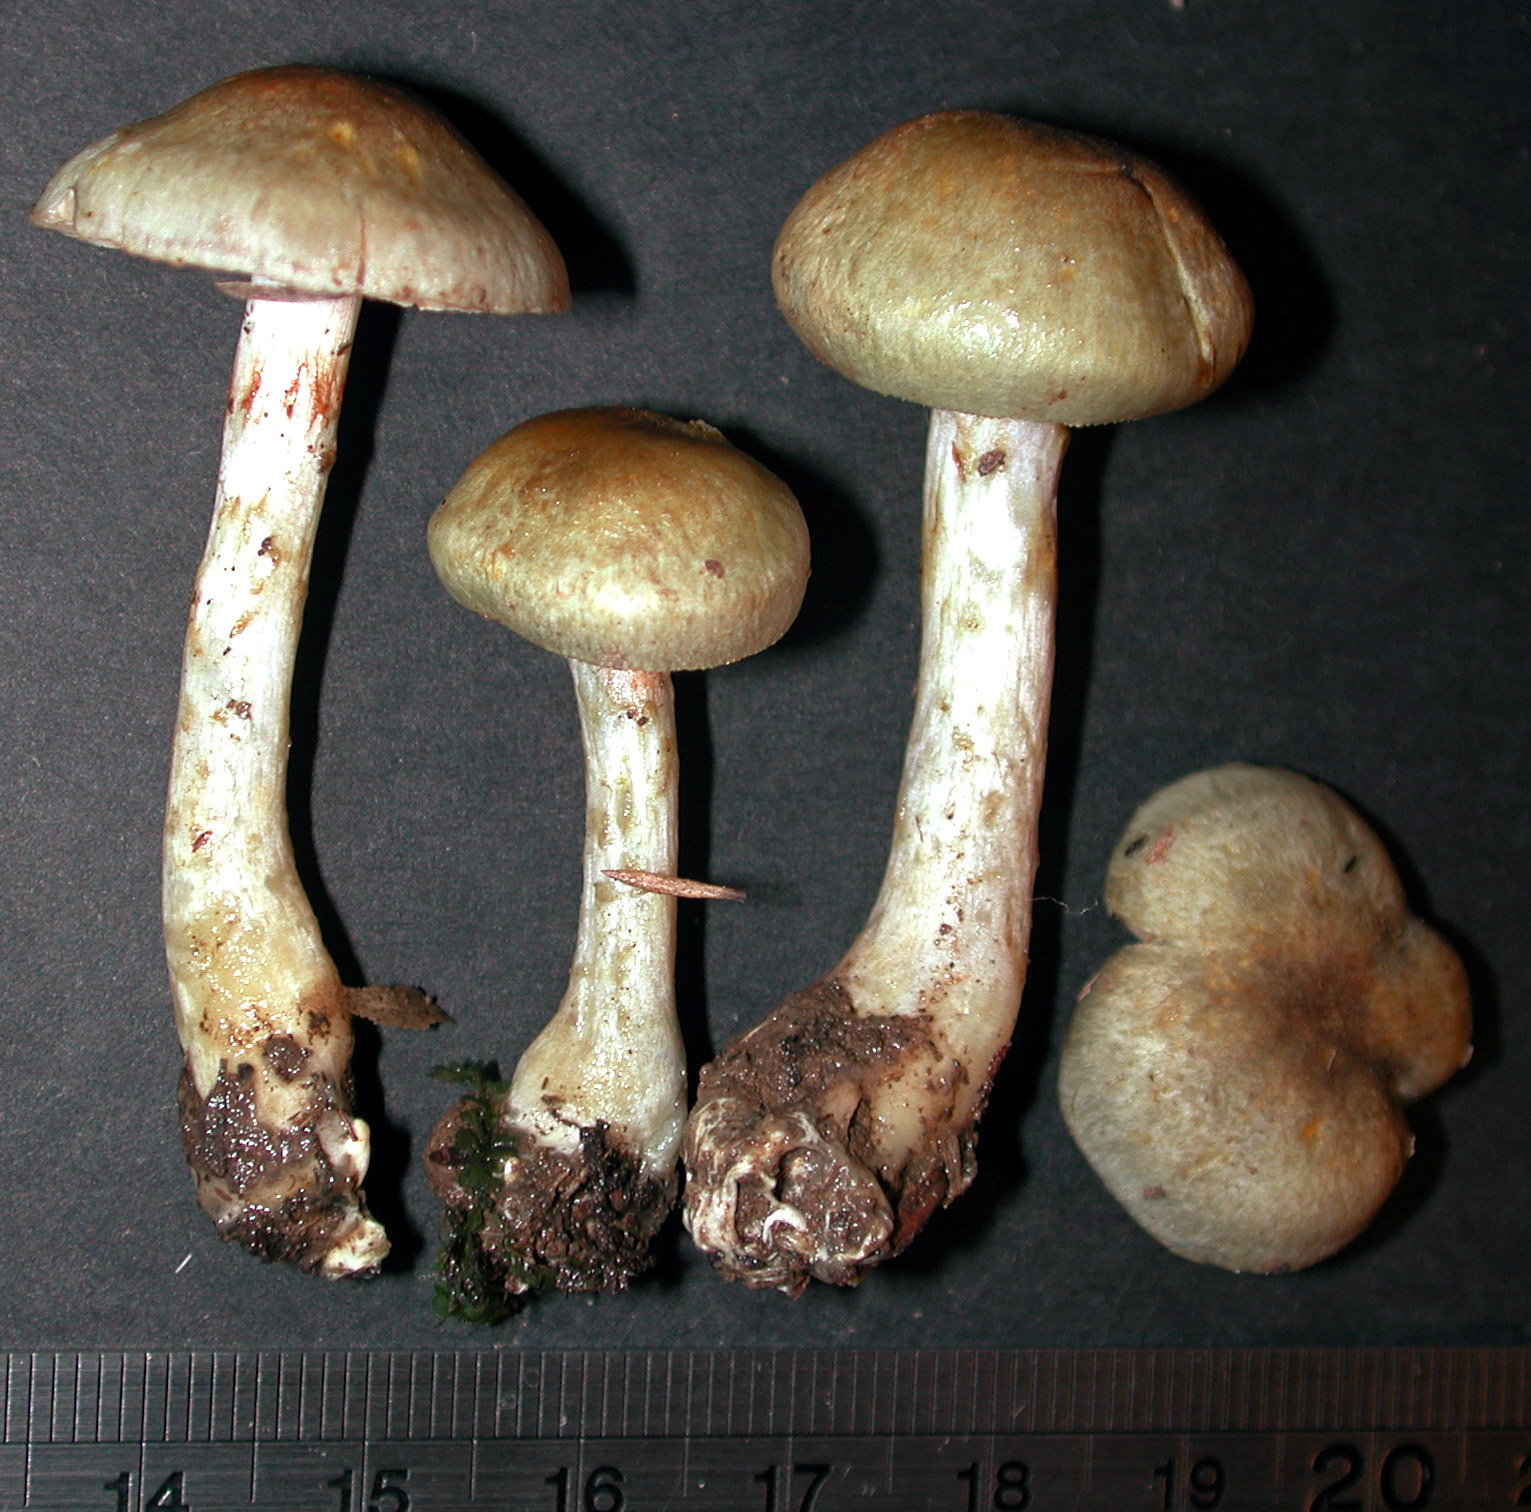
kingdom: Fungi
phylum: Basidiomycota
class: Agaricomycetes
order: Agaricales
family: Cortinariaceae
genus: Cortinarius
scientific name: Cortinarius calaisopus
